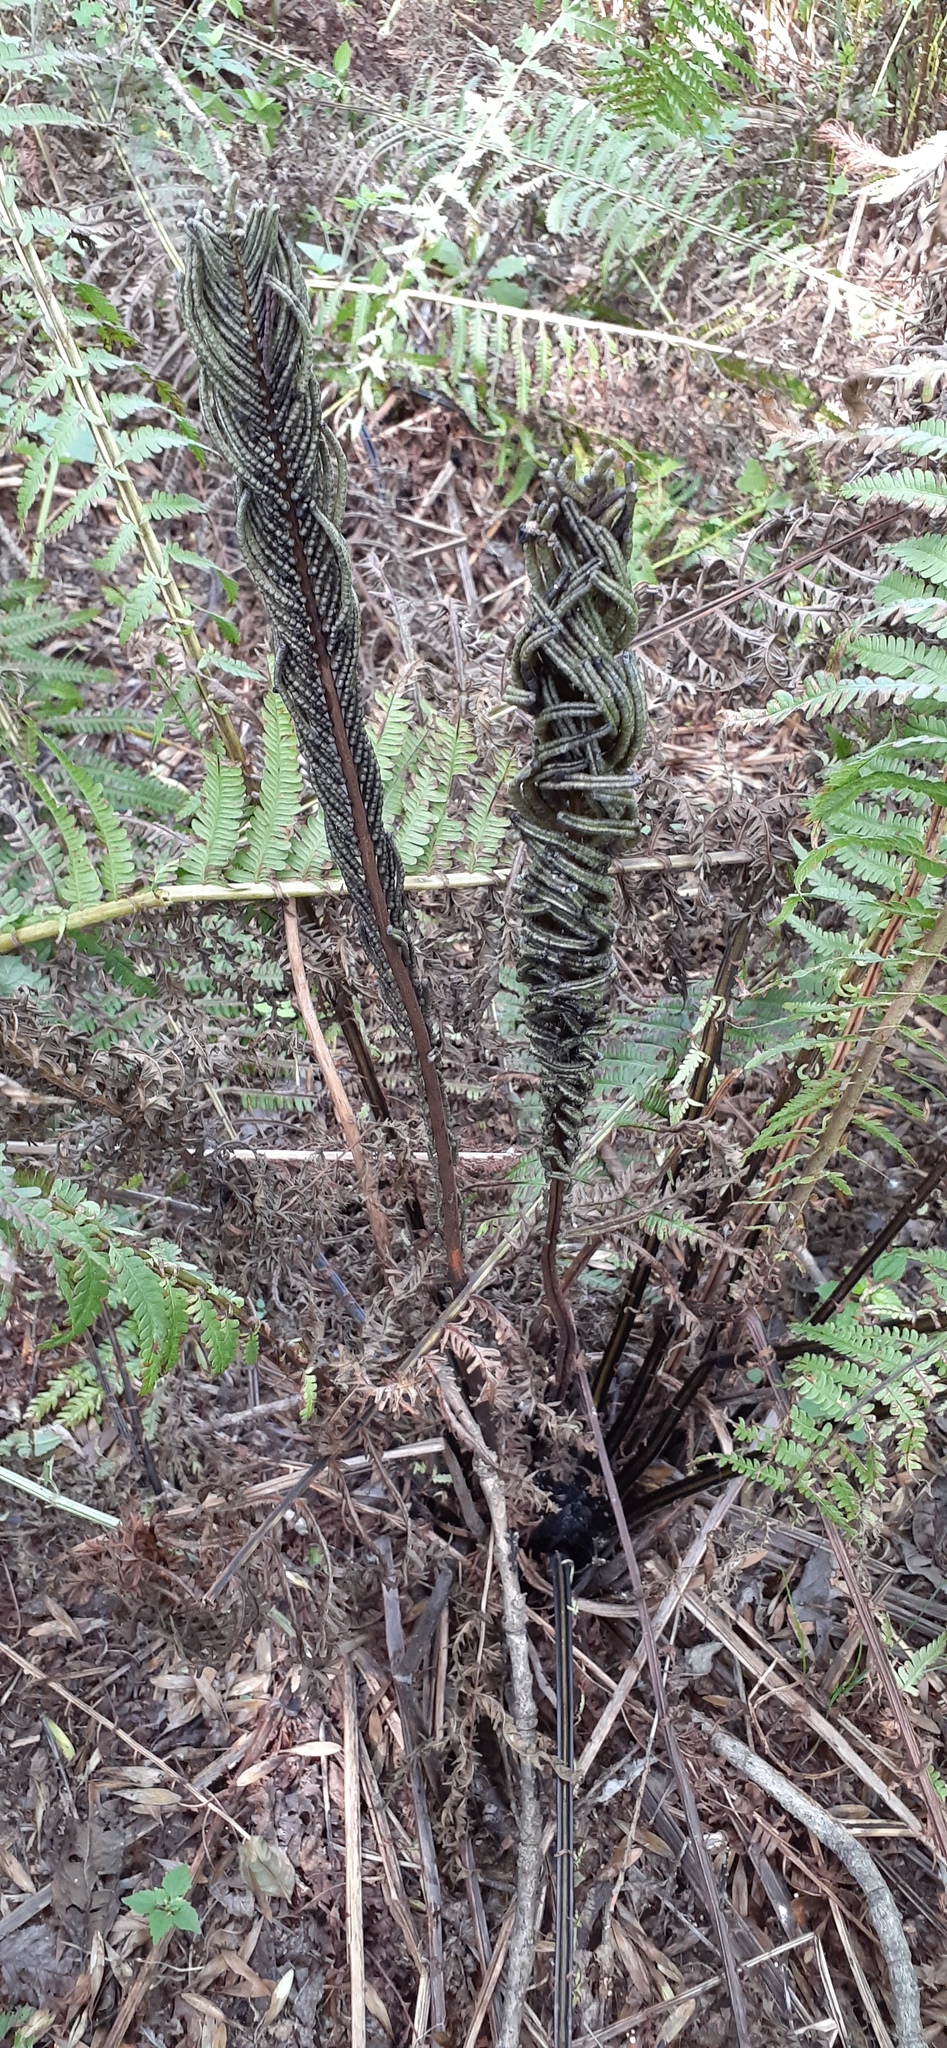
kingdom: Plantae
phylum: Tracheophyta
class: Polypodiopsida
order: Polypodiales
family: Onocleaceae
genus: Matteuccia
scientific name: Matteuccia struthiopteris
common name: Ostrich fern
